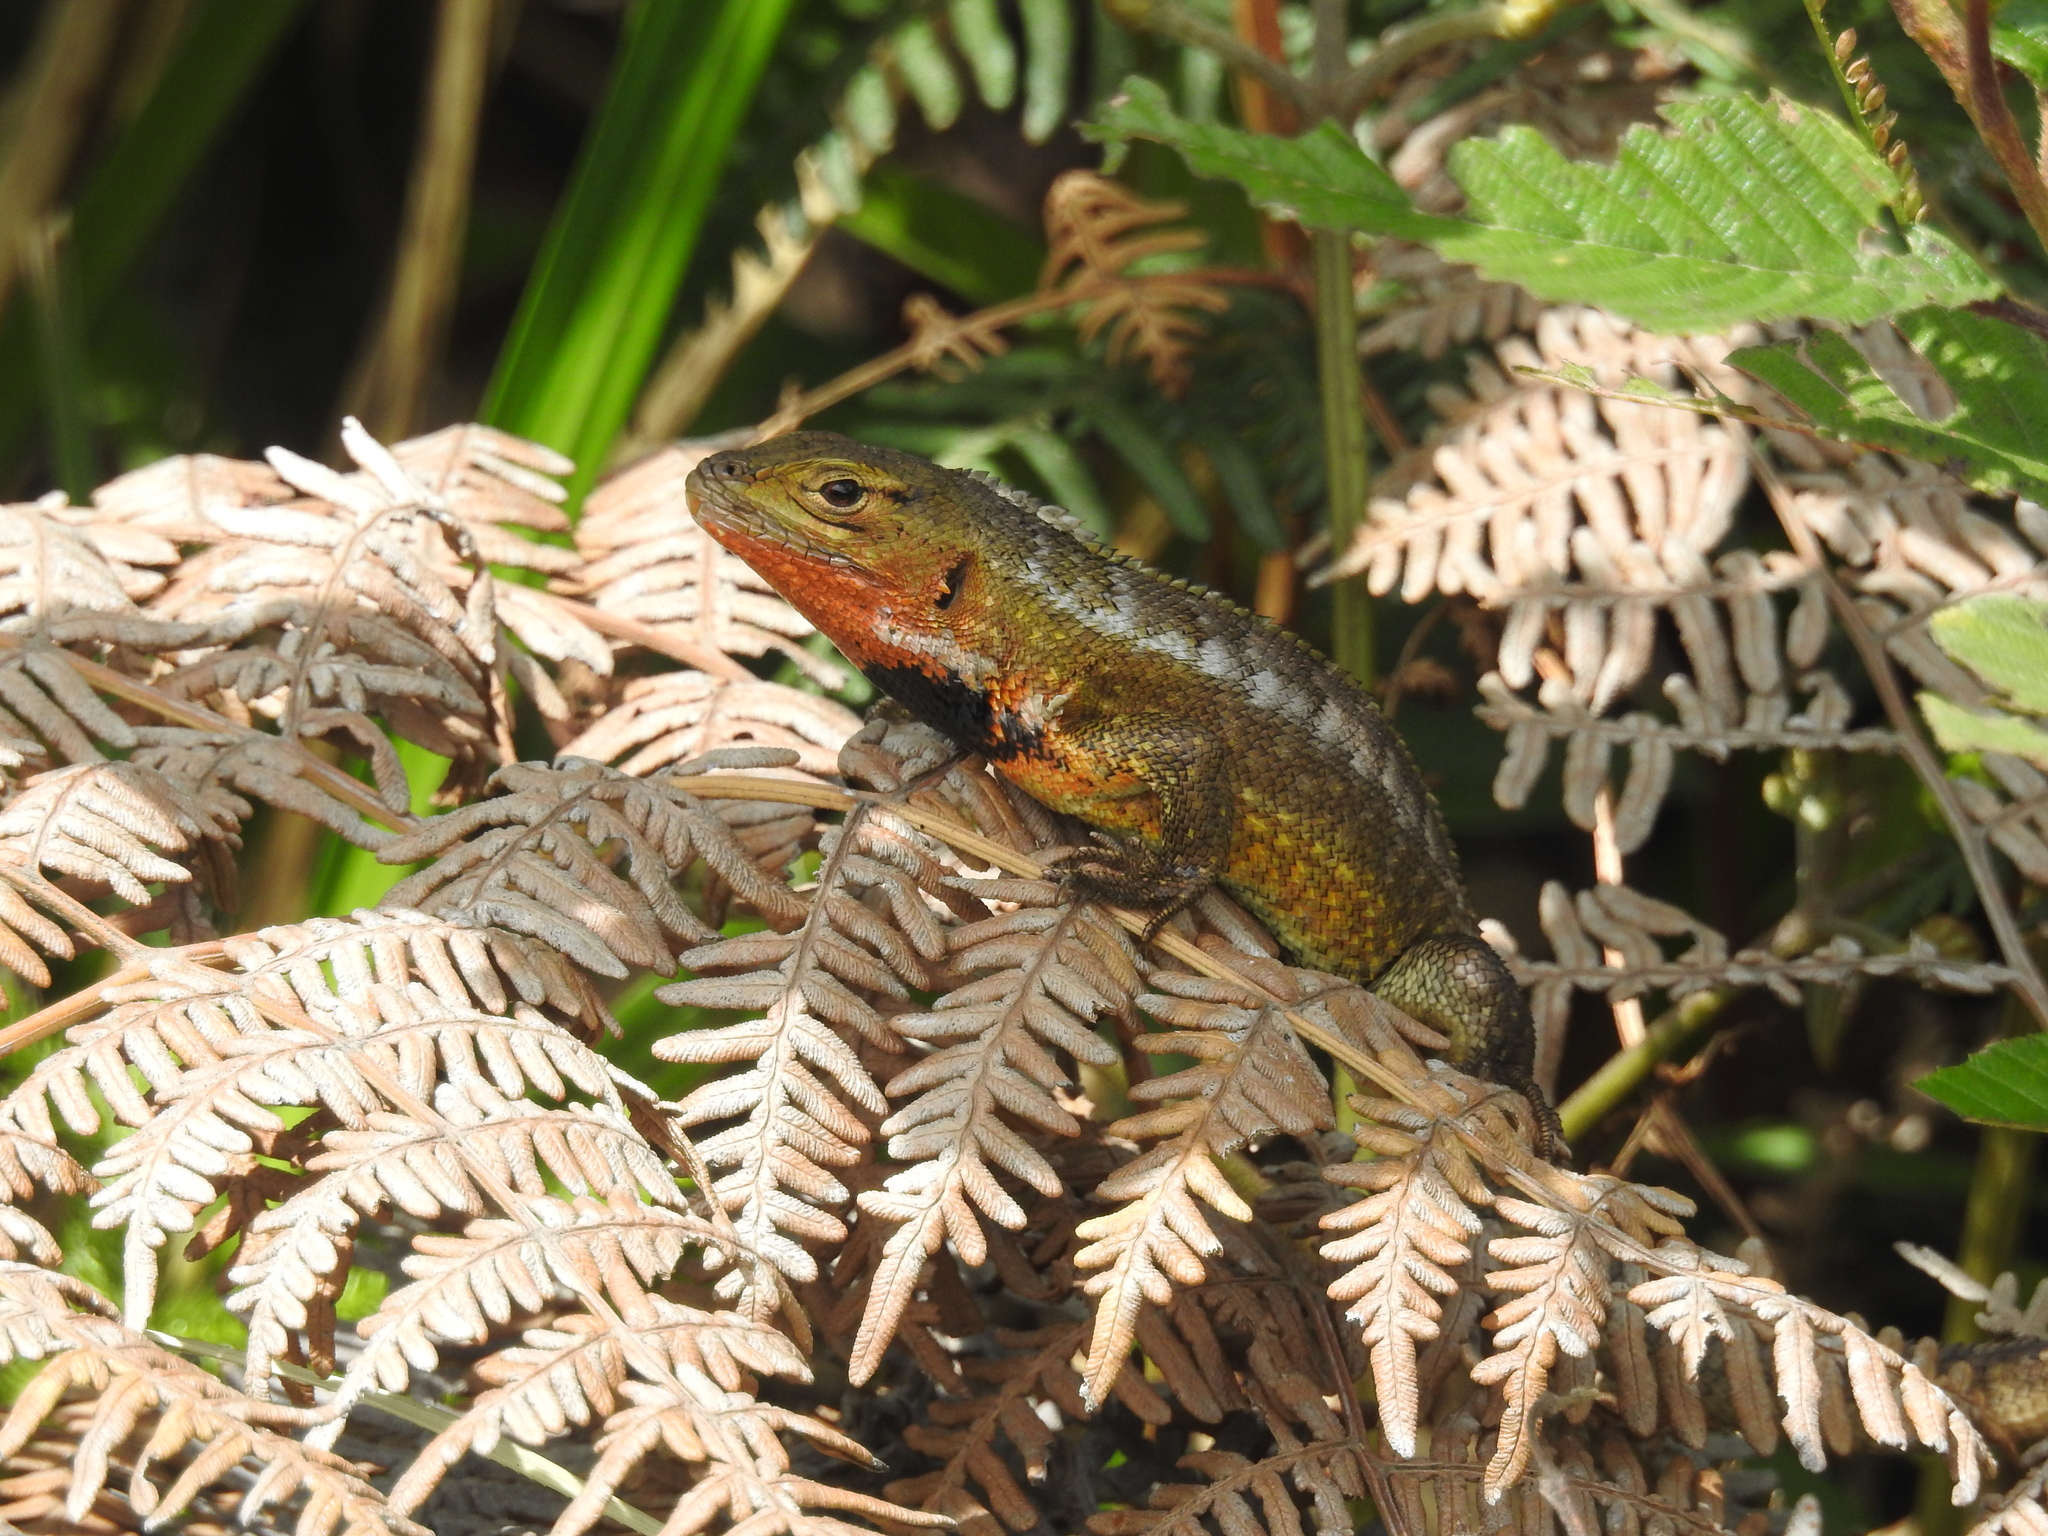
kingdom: Animalia
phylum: Chordata
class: Squamata
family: Tropiduridae
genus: Stenocercus
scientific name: Stenocercus festae
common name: Peracca's whorltail iguana
